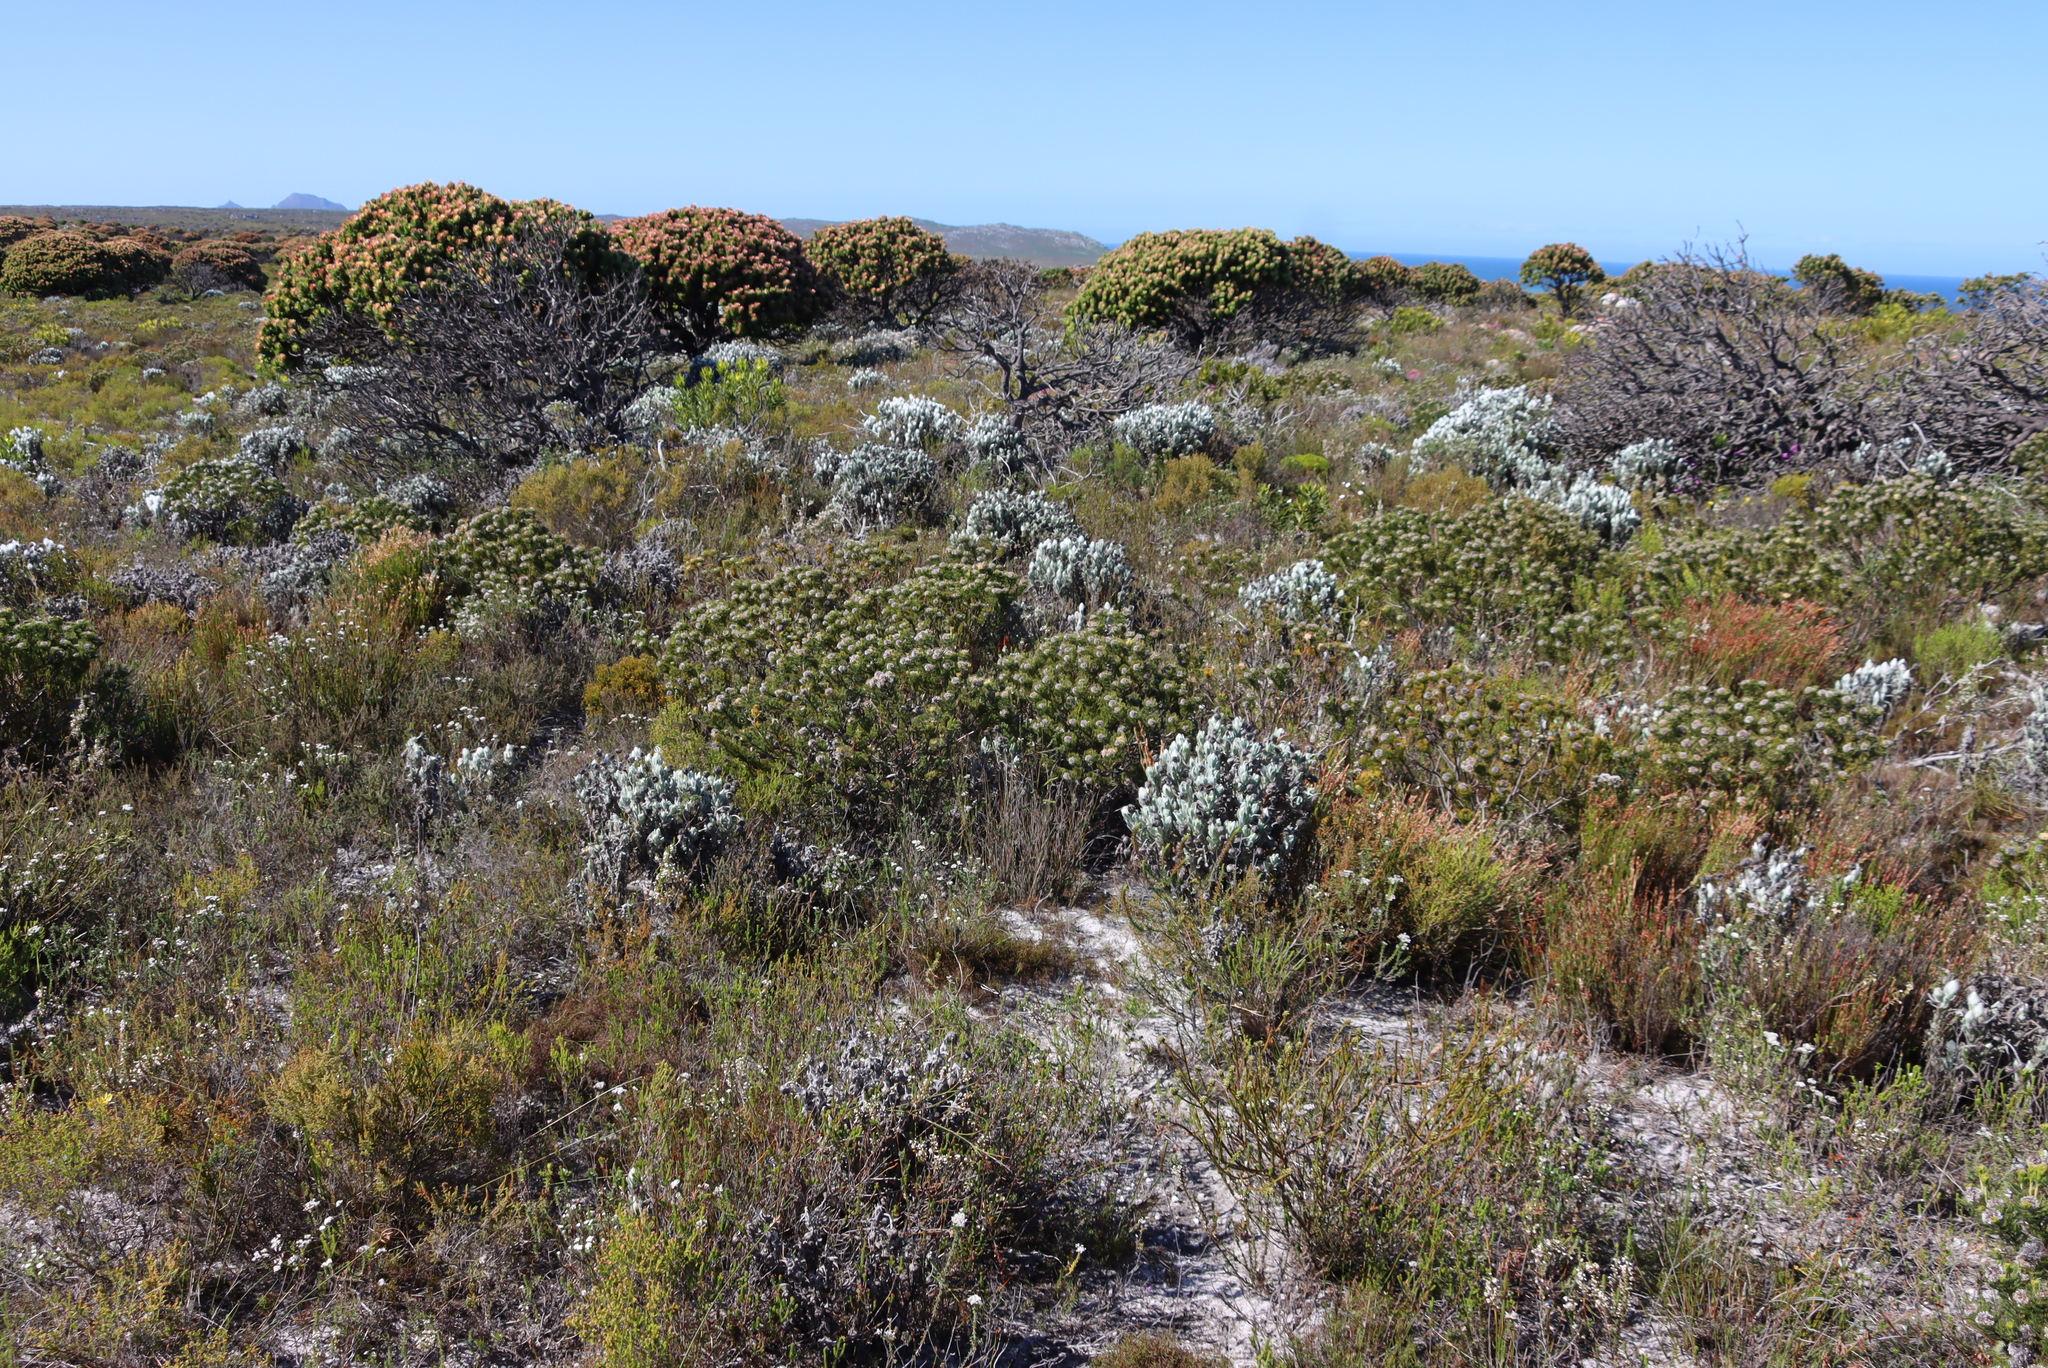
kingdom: Plantae
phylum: Tracheophyta
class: Magnoliopsida
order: Asterales
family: Asteraceae
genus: Syncarpha
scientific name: Syncarpha vestita
